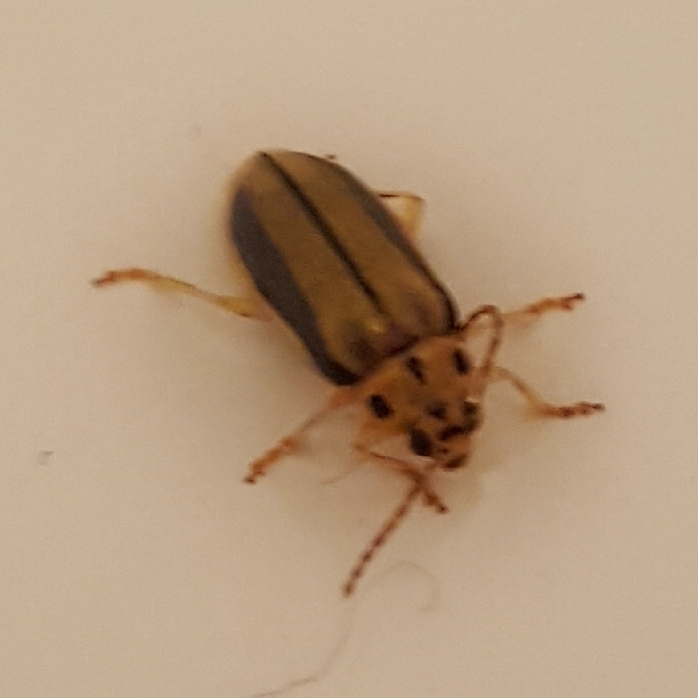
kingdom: Animalia
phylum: Arthropoda
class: Insecta
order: Coleoptera
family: Chrysomelidae
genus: Xanthogaleruca
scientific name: Xanthogaleruca luteola
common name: Elm leaf beetle
